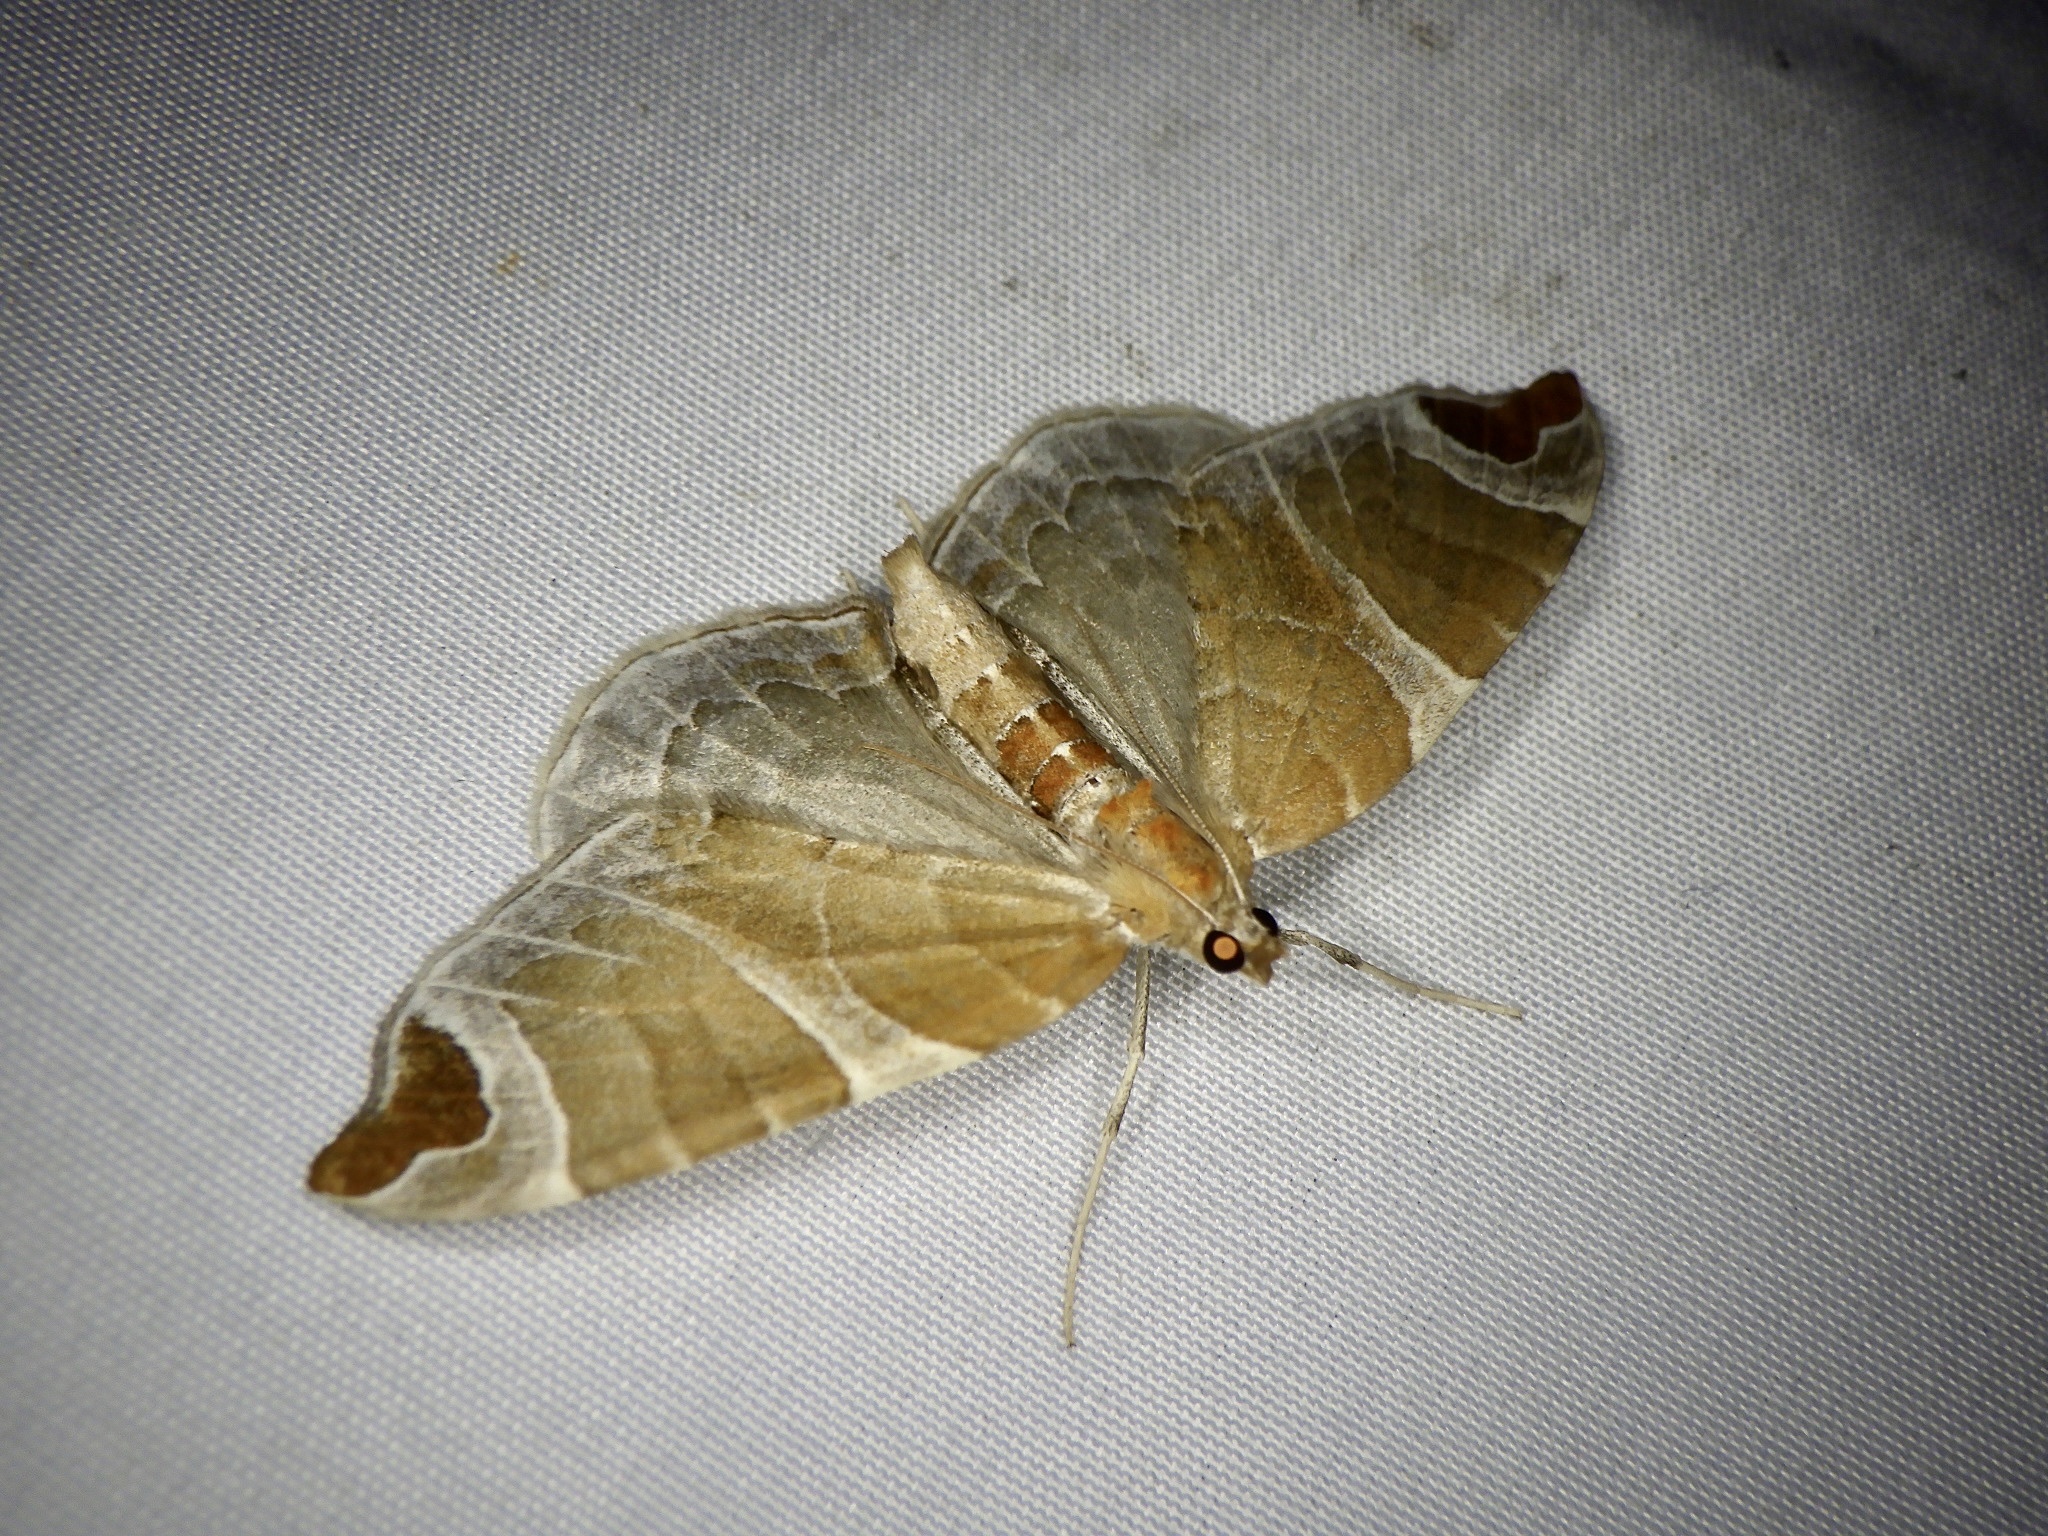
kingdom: Animalia
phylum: Arthropoda
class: Insecta
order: Lepidoptera
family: Geometridae
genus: Eulithis
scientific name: Eulithis ledereri
